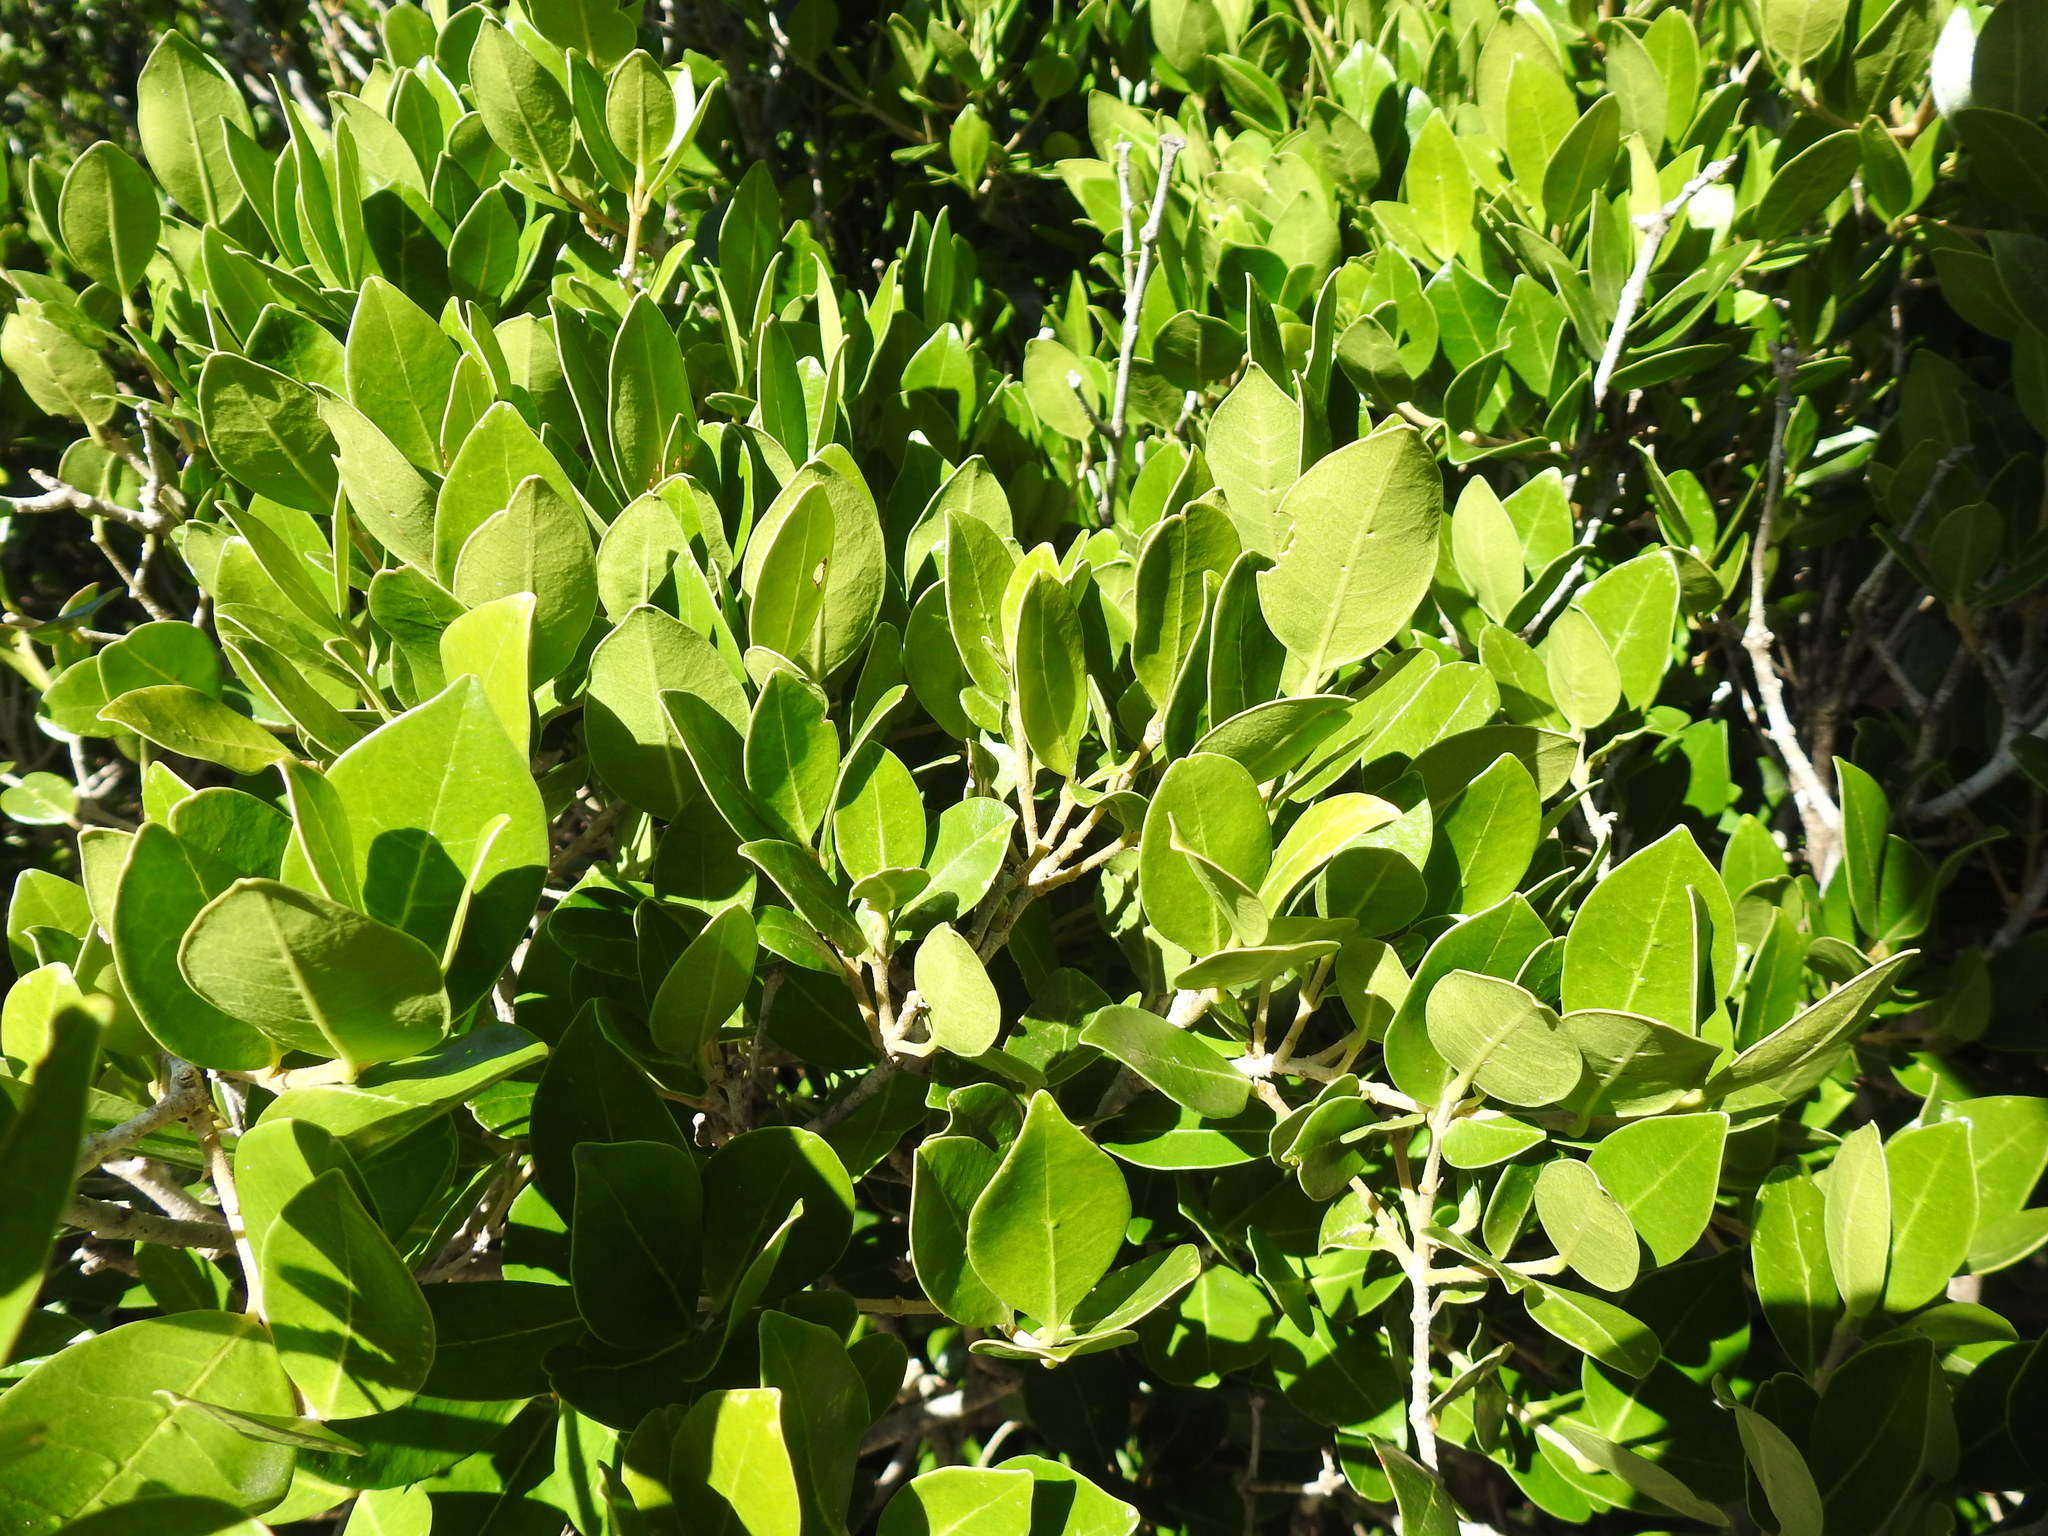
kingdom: Plantae
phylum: Tracheophyta
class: Magnoliopsida
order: Lamiales
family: Oleaceae
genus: Noronhia
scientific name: Noronhia foveolata
